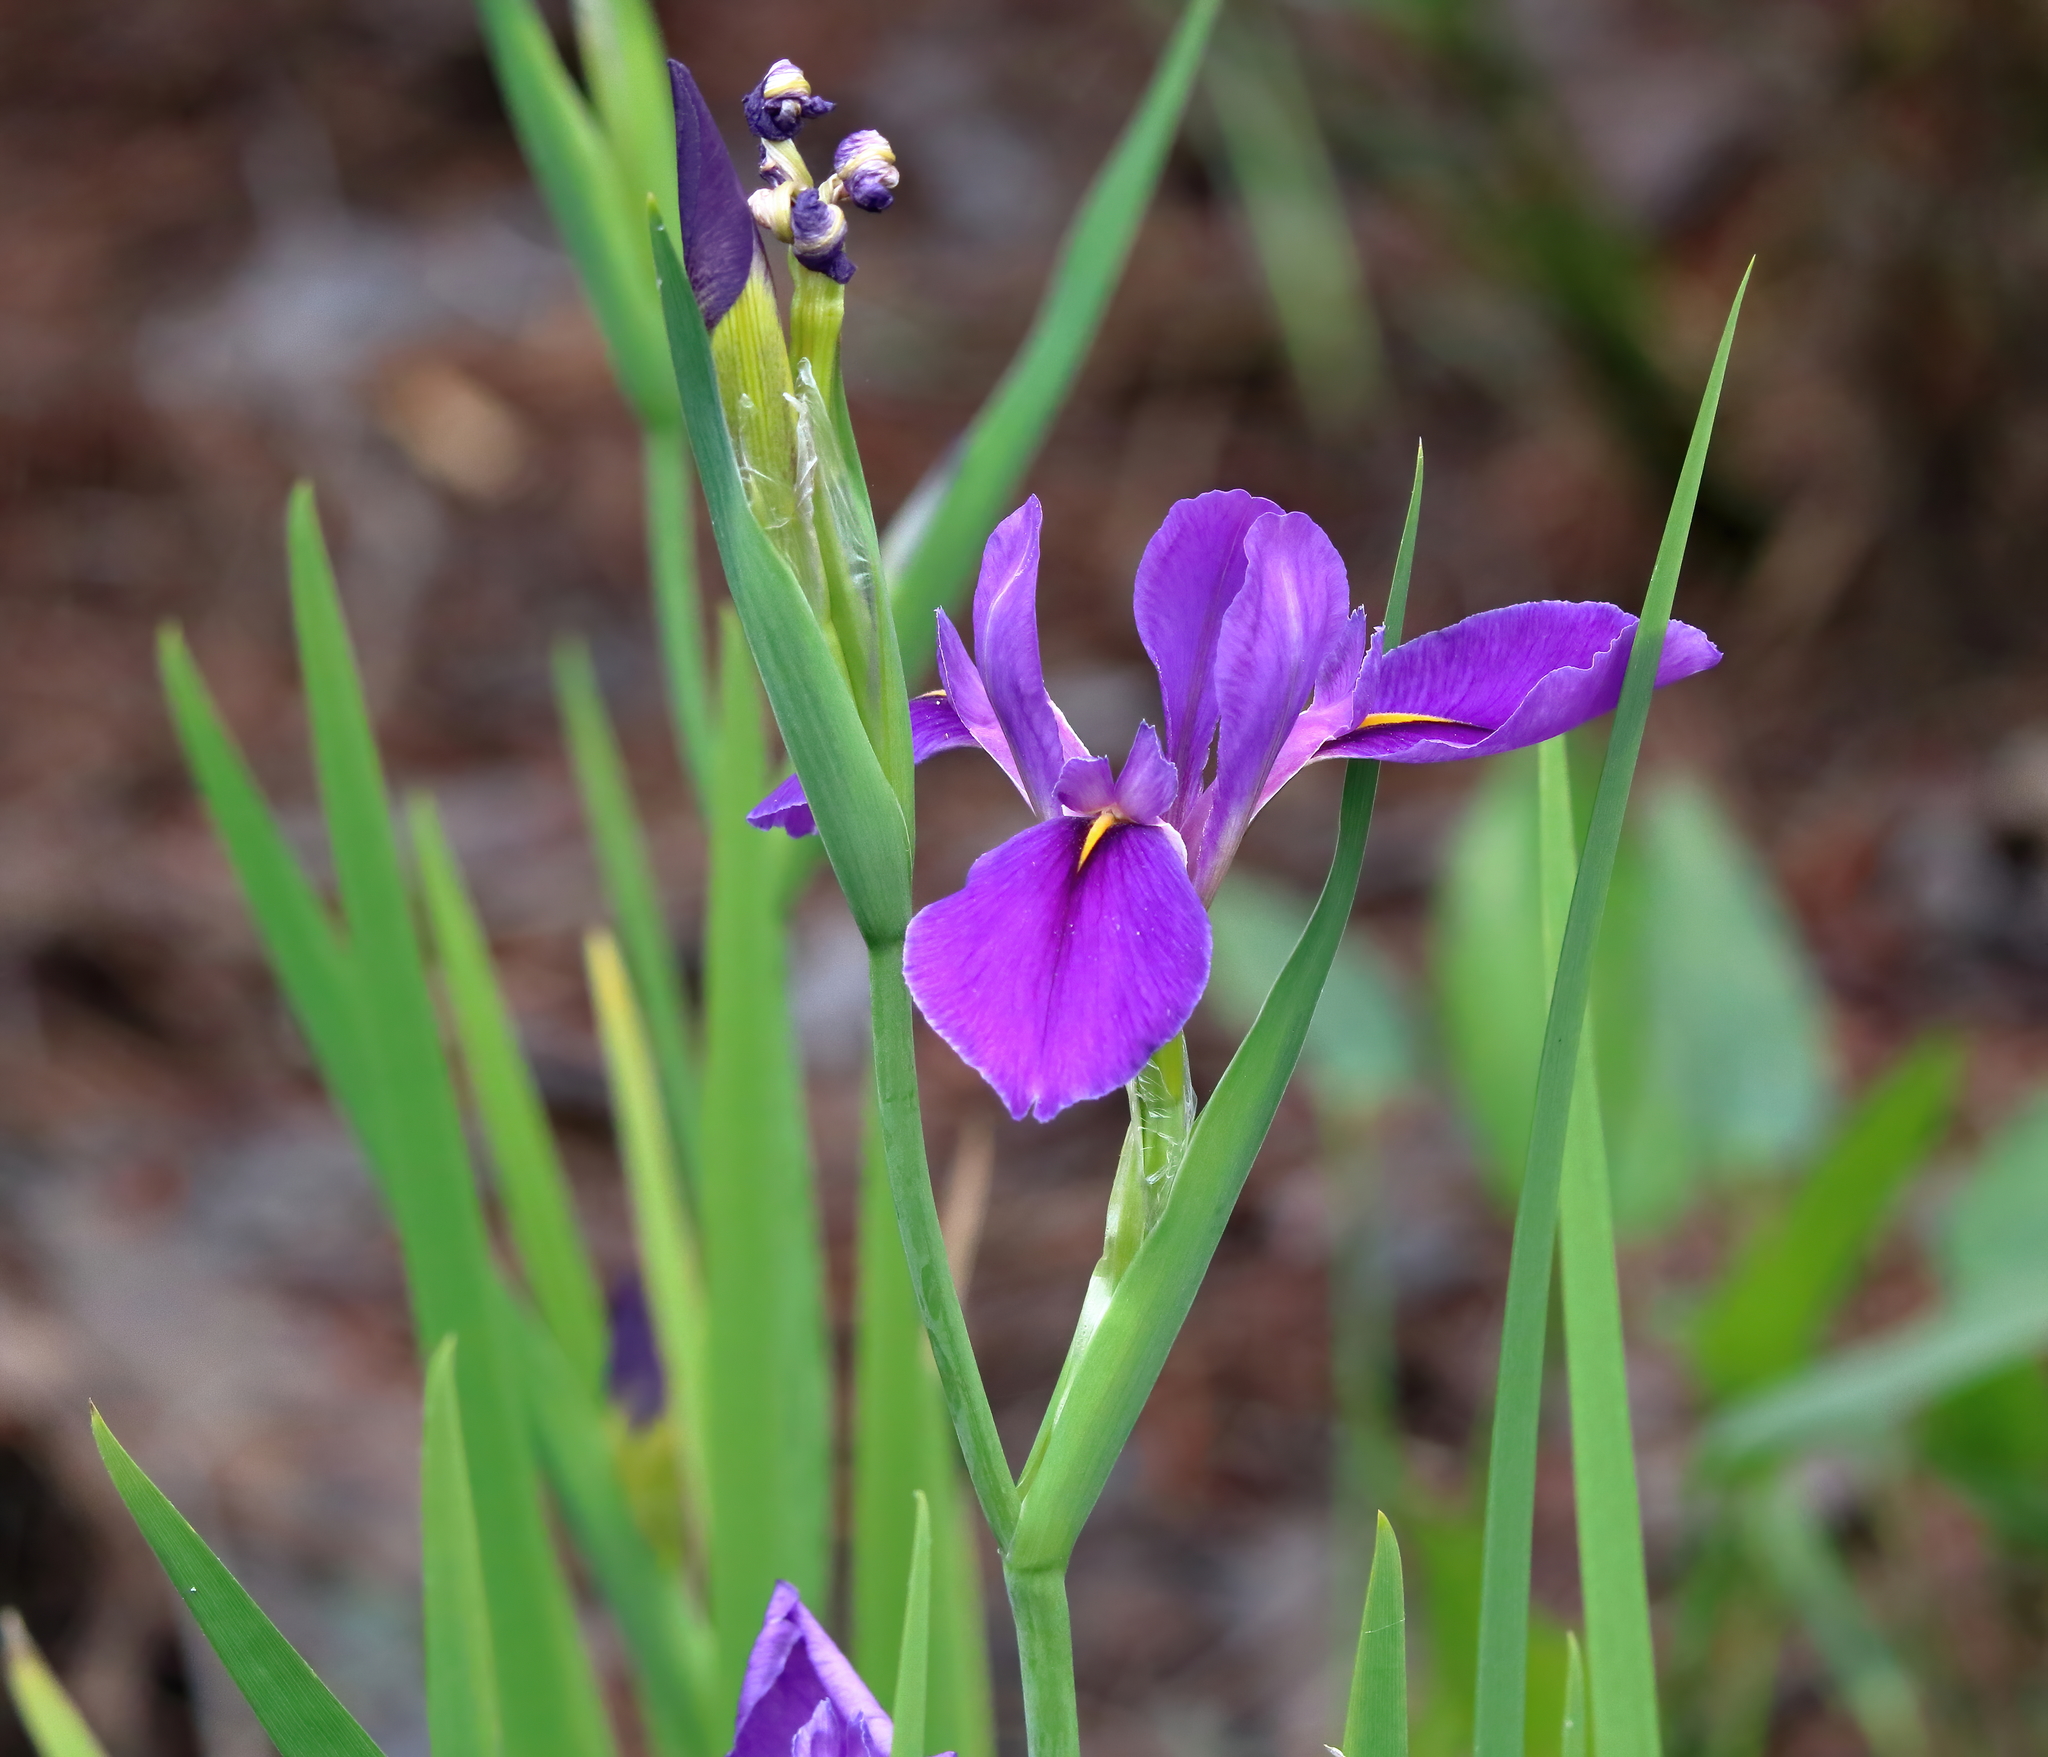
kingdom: Plantae
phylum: Tracheophyta
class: Liliopsida
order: Asparagales
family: Iridaceae
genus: Iris
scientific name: Iris giganticaerulea
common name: Giant blue iris
